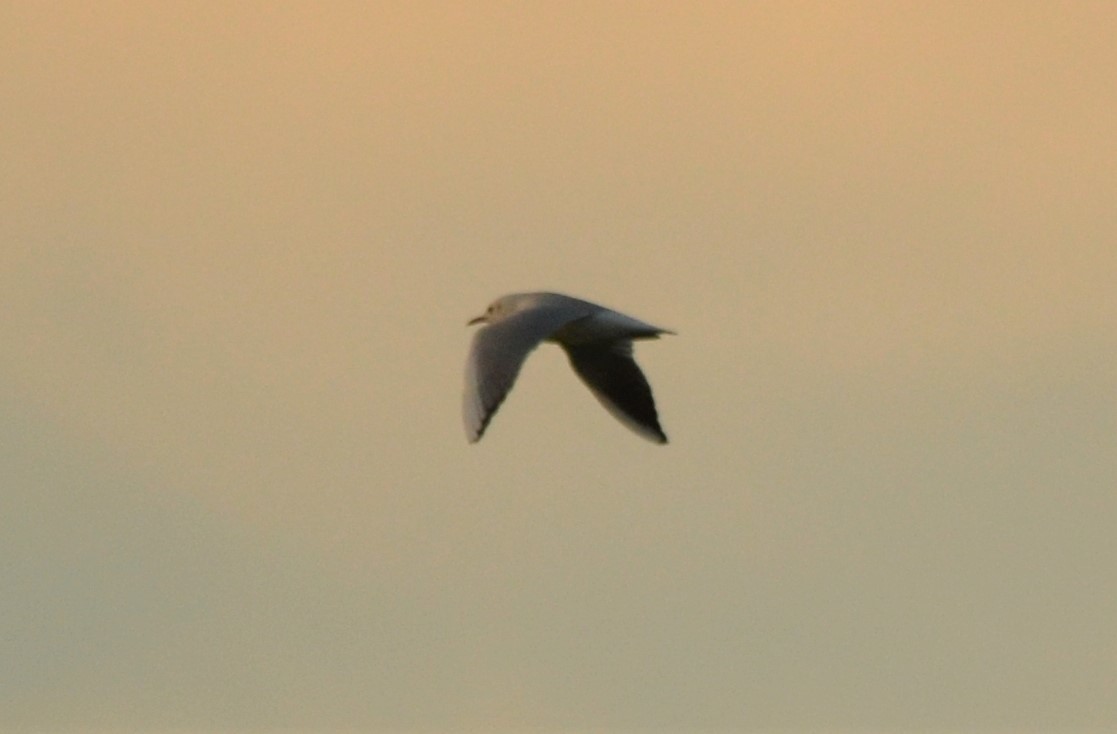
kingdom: Animalia
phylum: Chordata
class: Aves
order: Charadriiformes
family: Laridae
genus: Chroicocephalus
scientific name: Chroicocephalus ridibundus
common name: Black-headed gull
